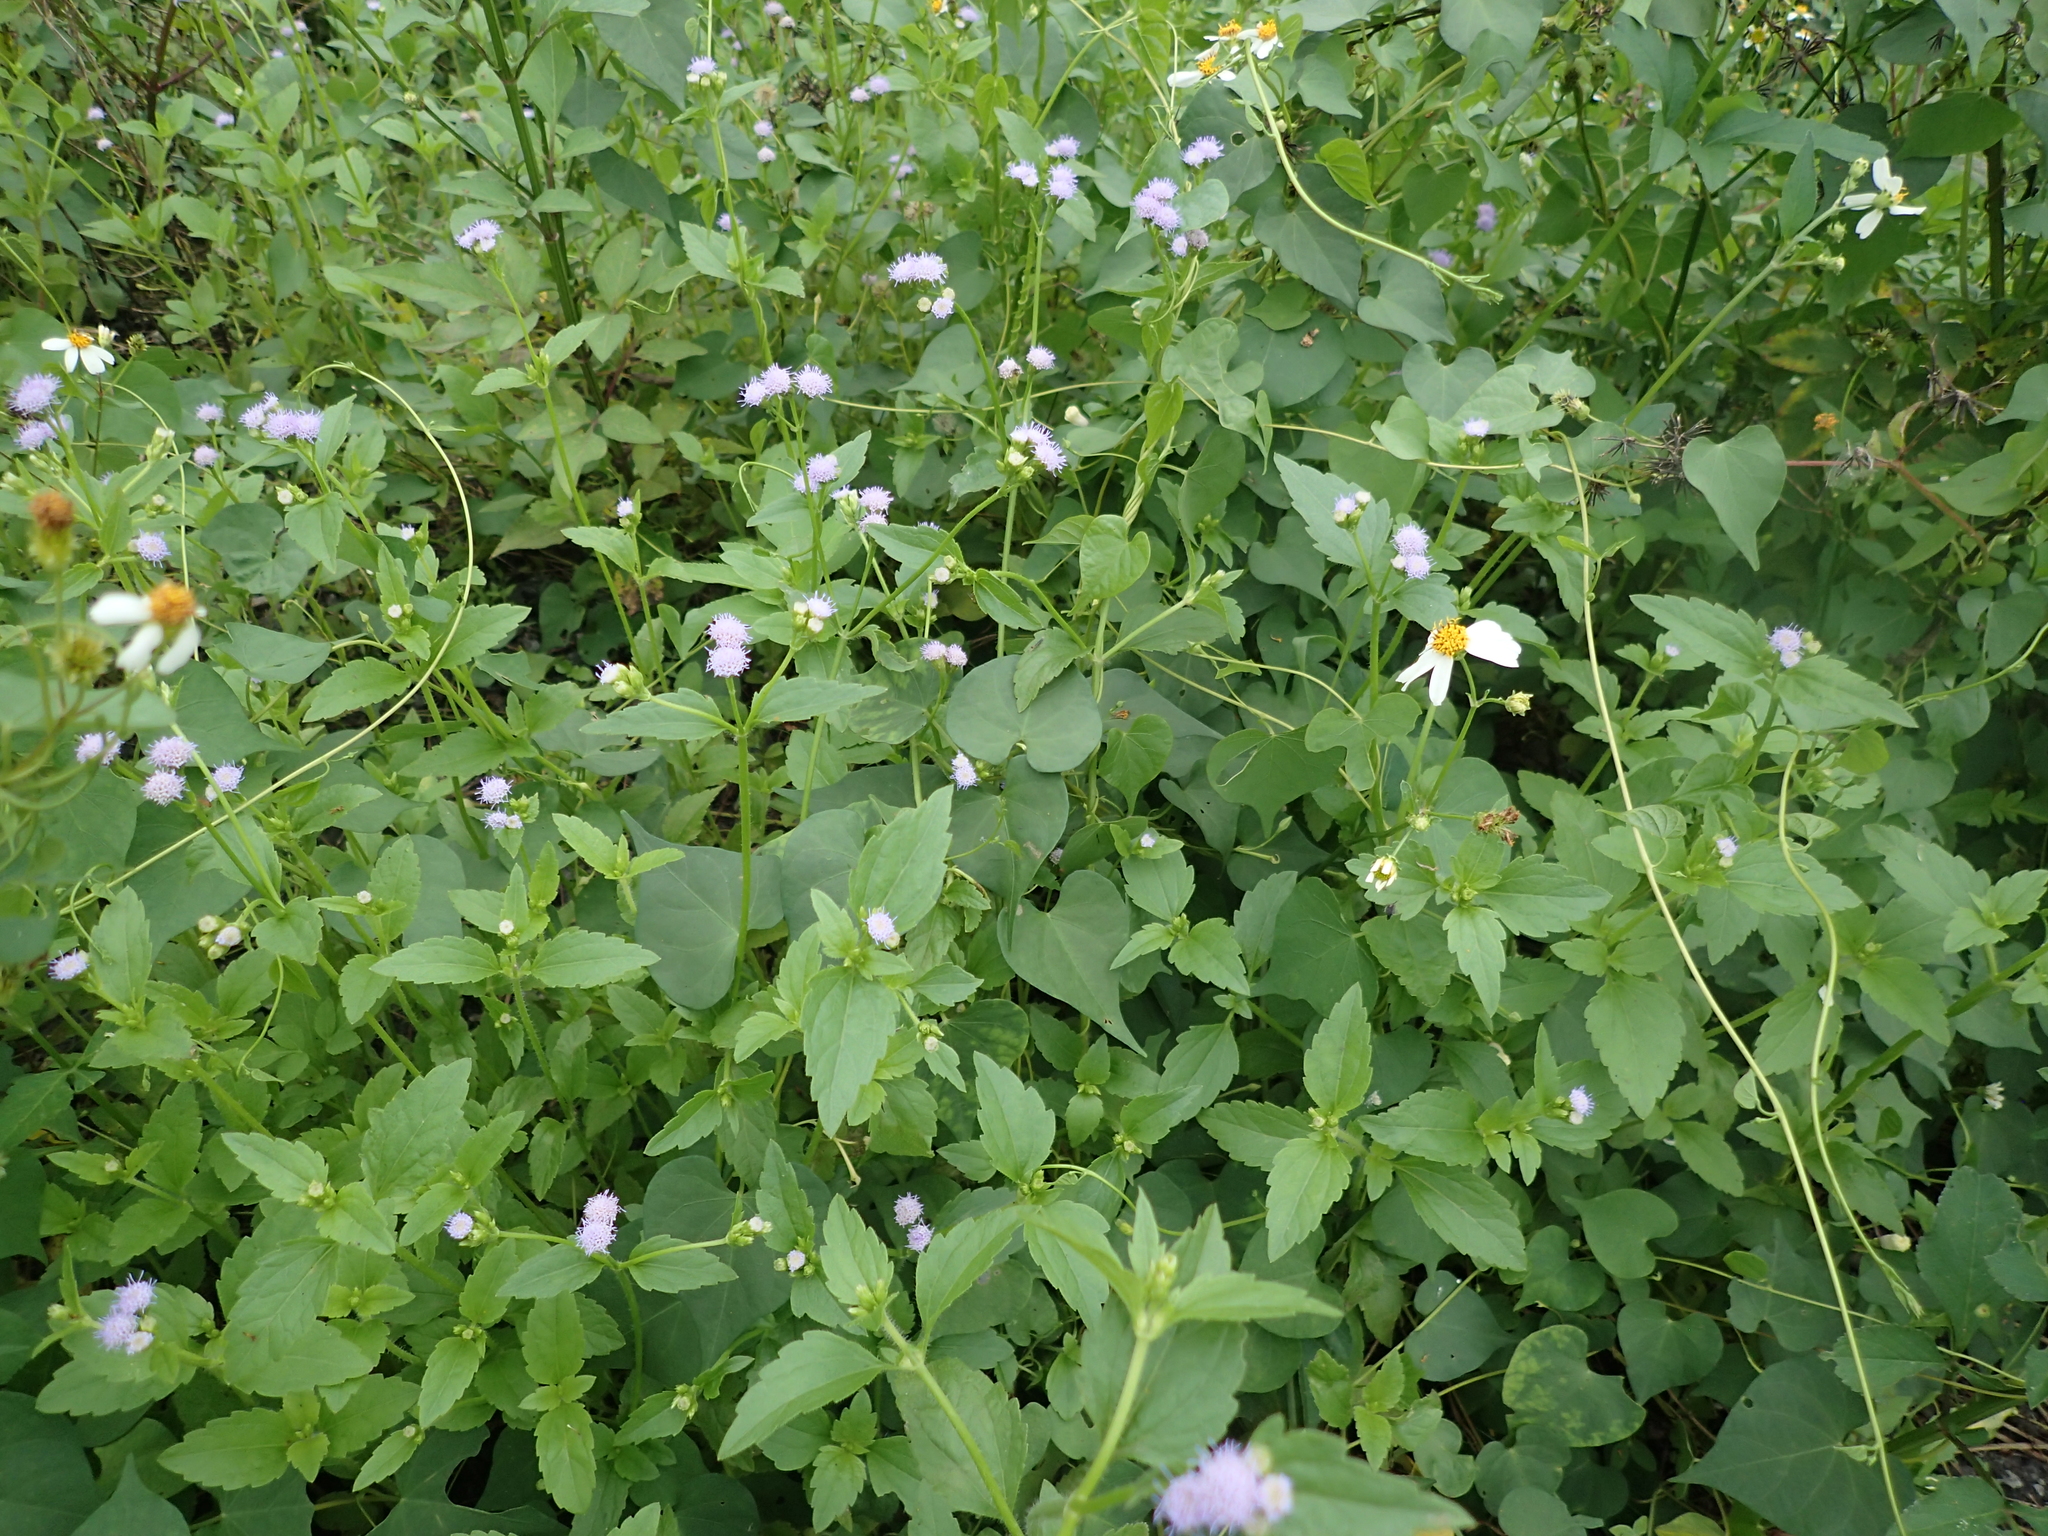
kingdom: Plantae
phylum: Tracheophyta
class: Magnoliopsida
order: Asterales
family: Asteraceae
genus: Praxelis
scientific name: Praxelis clematidea
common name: Praxelis
